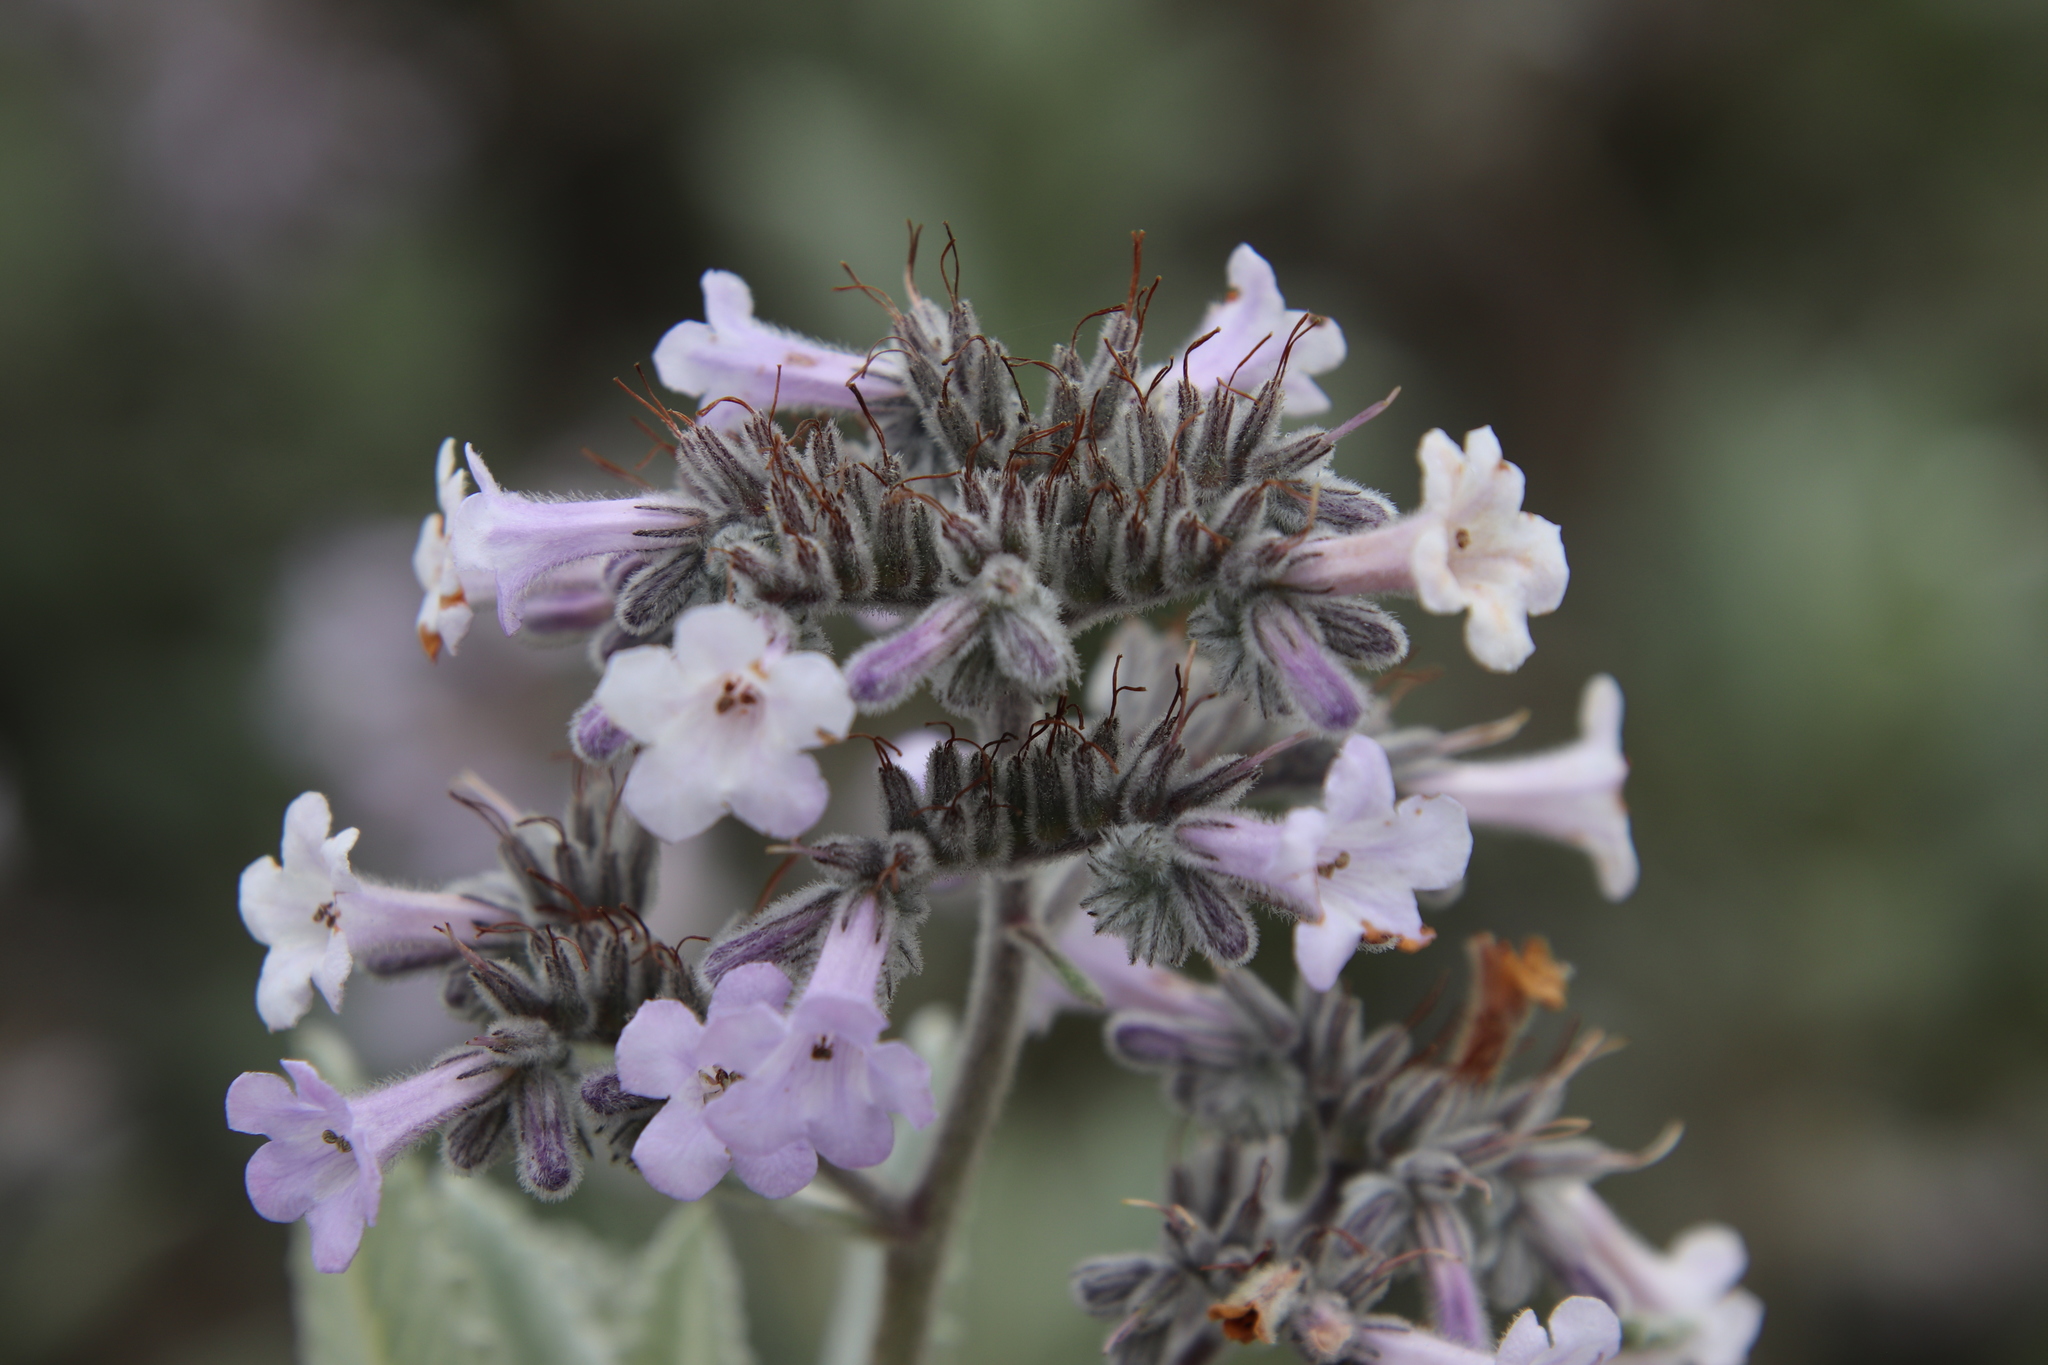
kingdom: Plantae
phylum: Tracheophyta
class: Magnoliopsida
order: Boraginales
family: Namaceae
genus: Eriodictyon
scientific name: Eriodictyon crassifolium
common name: Thick-leaf yerba-santa
